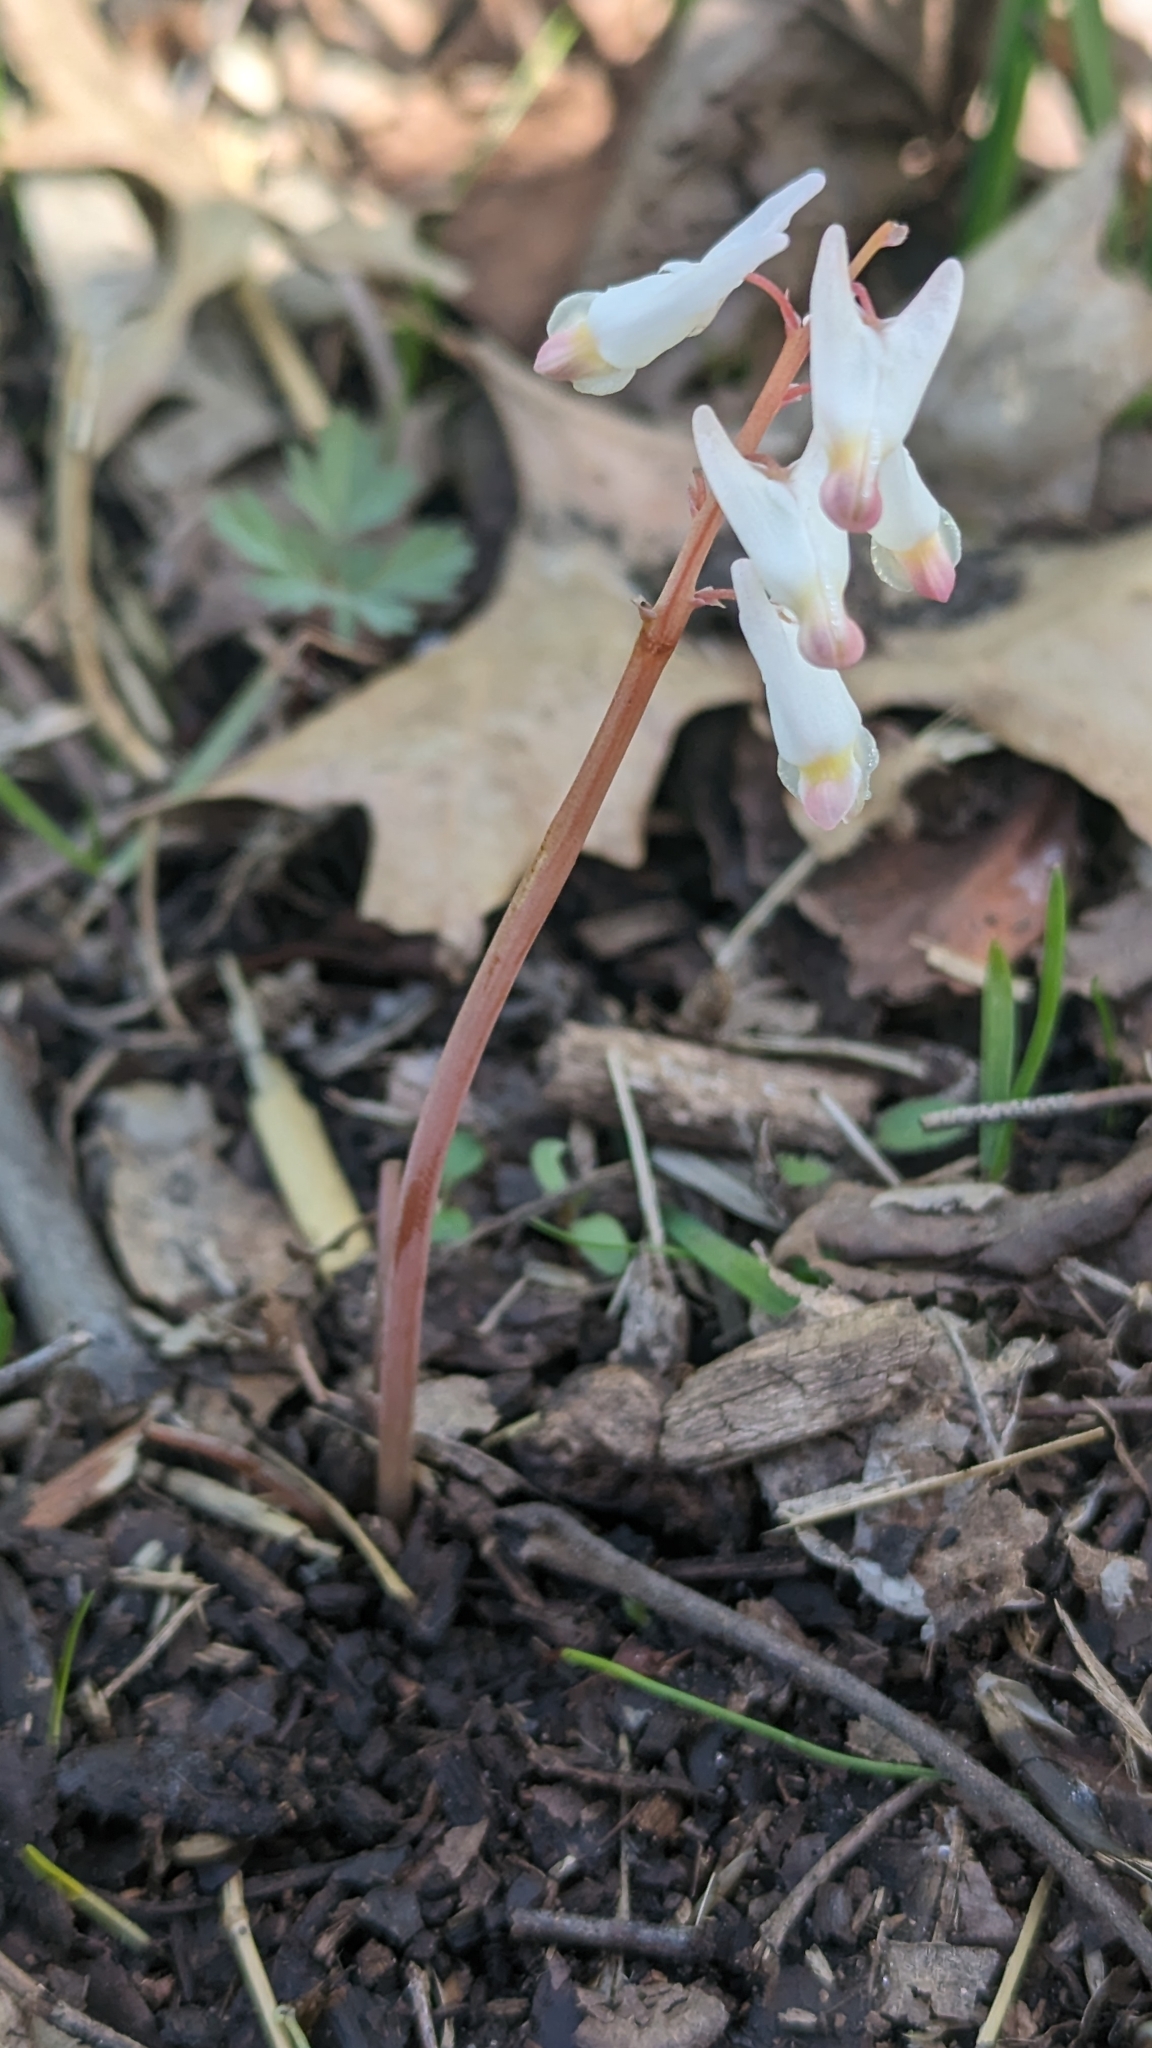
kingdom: Plantae
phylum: Tracheophyta
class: Magnoliopsida
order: Ranunculales
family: Papaveraceae
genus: Dicentra
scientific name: Dicentra cucullaria
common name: Dutchman's breeches
